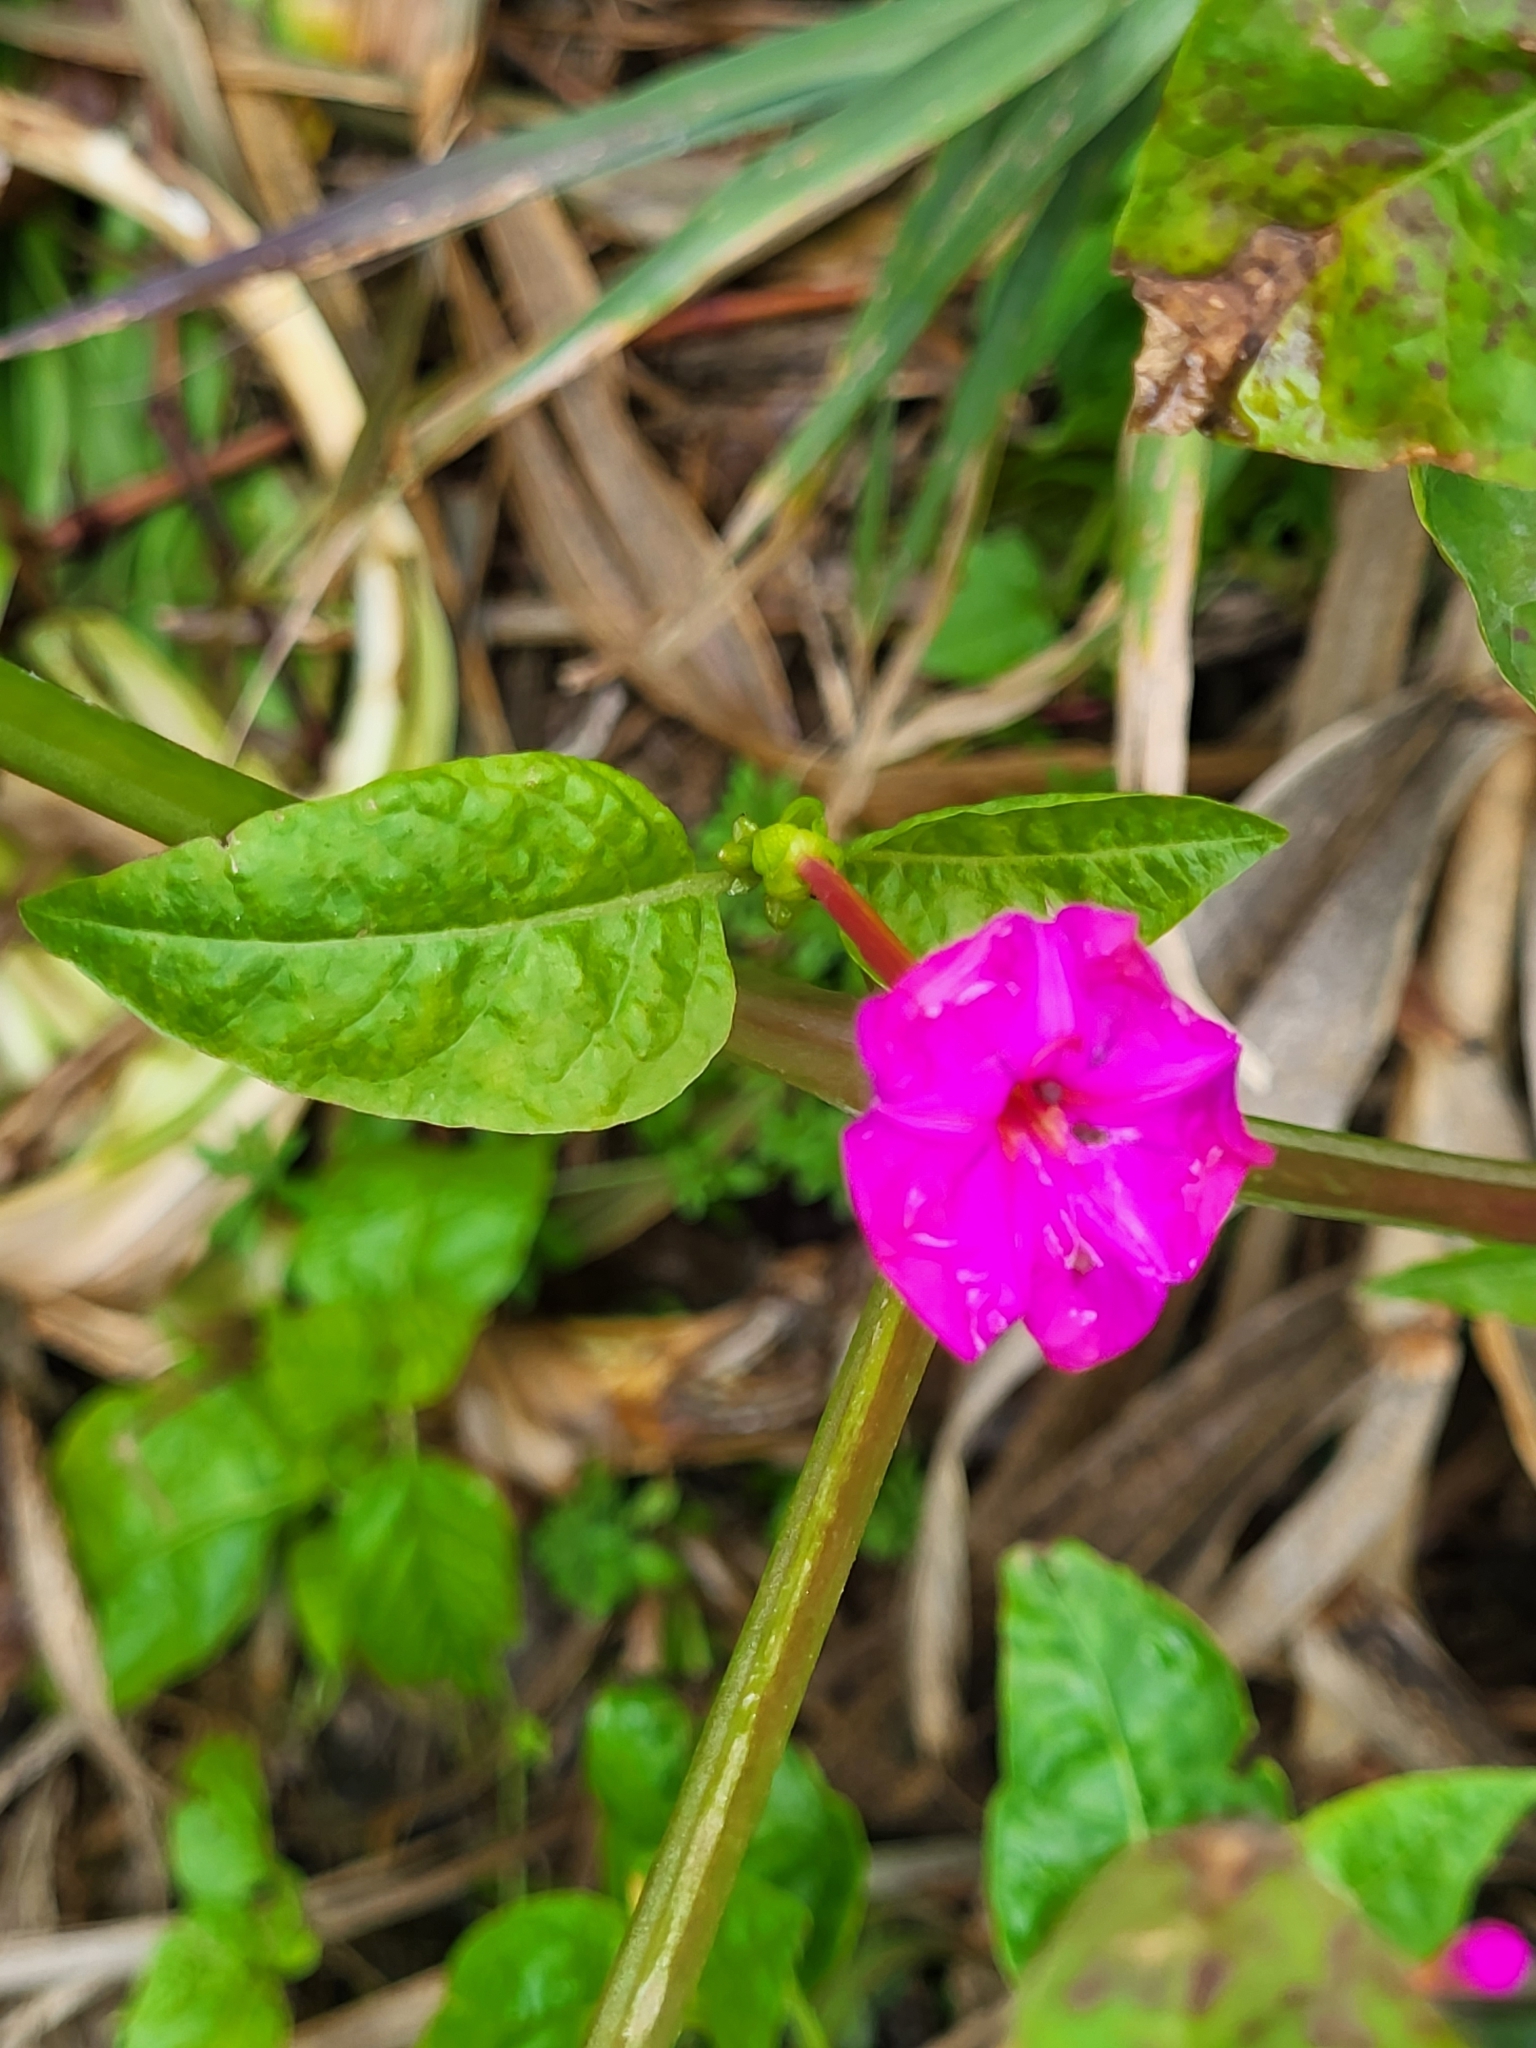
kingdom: Plantae
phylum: Tracheophyta
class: Magnoliopsida
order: Caryophyllales
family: Nyctaginaceae
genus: Mirabilis
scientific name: Mirabilis jalapa
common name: Marvel-of-peru
